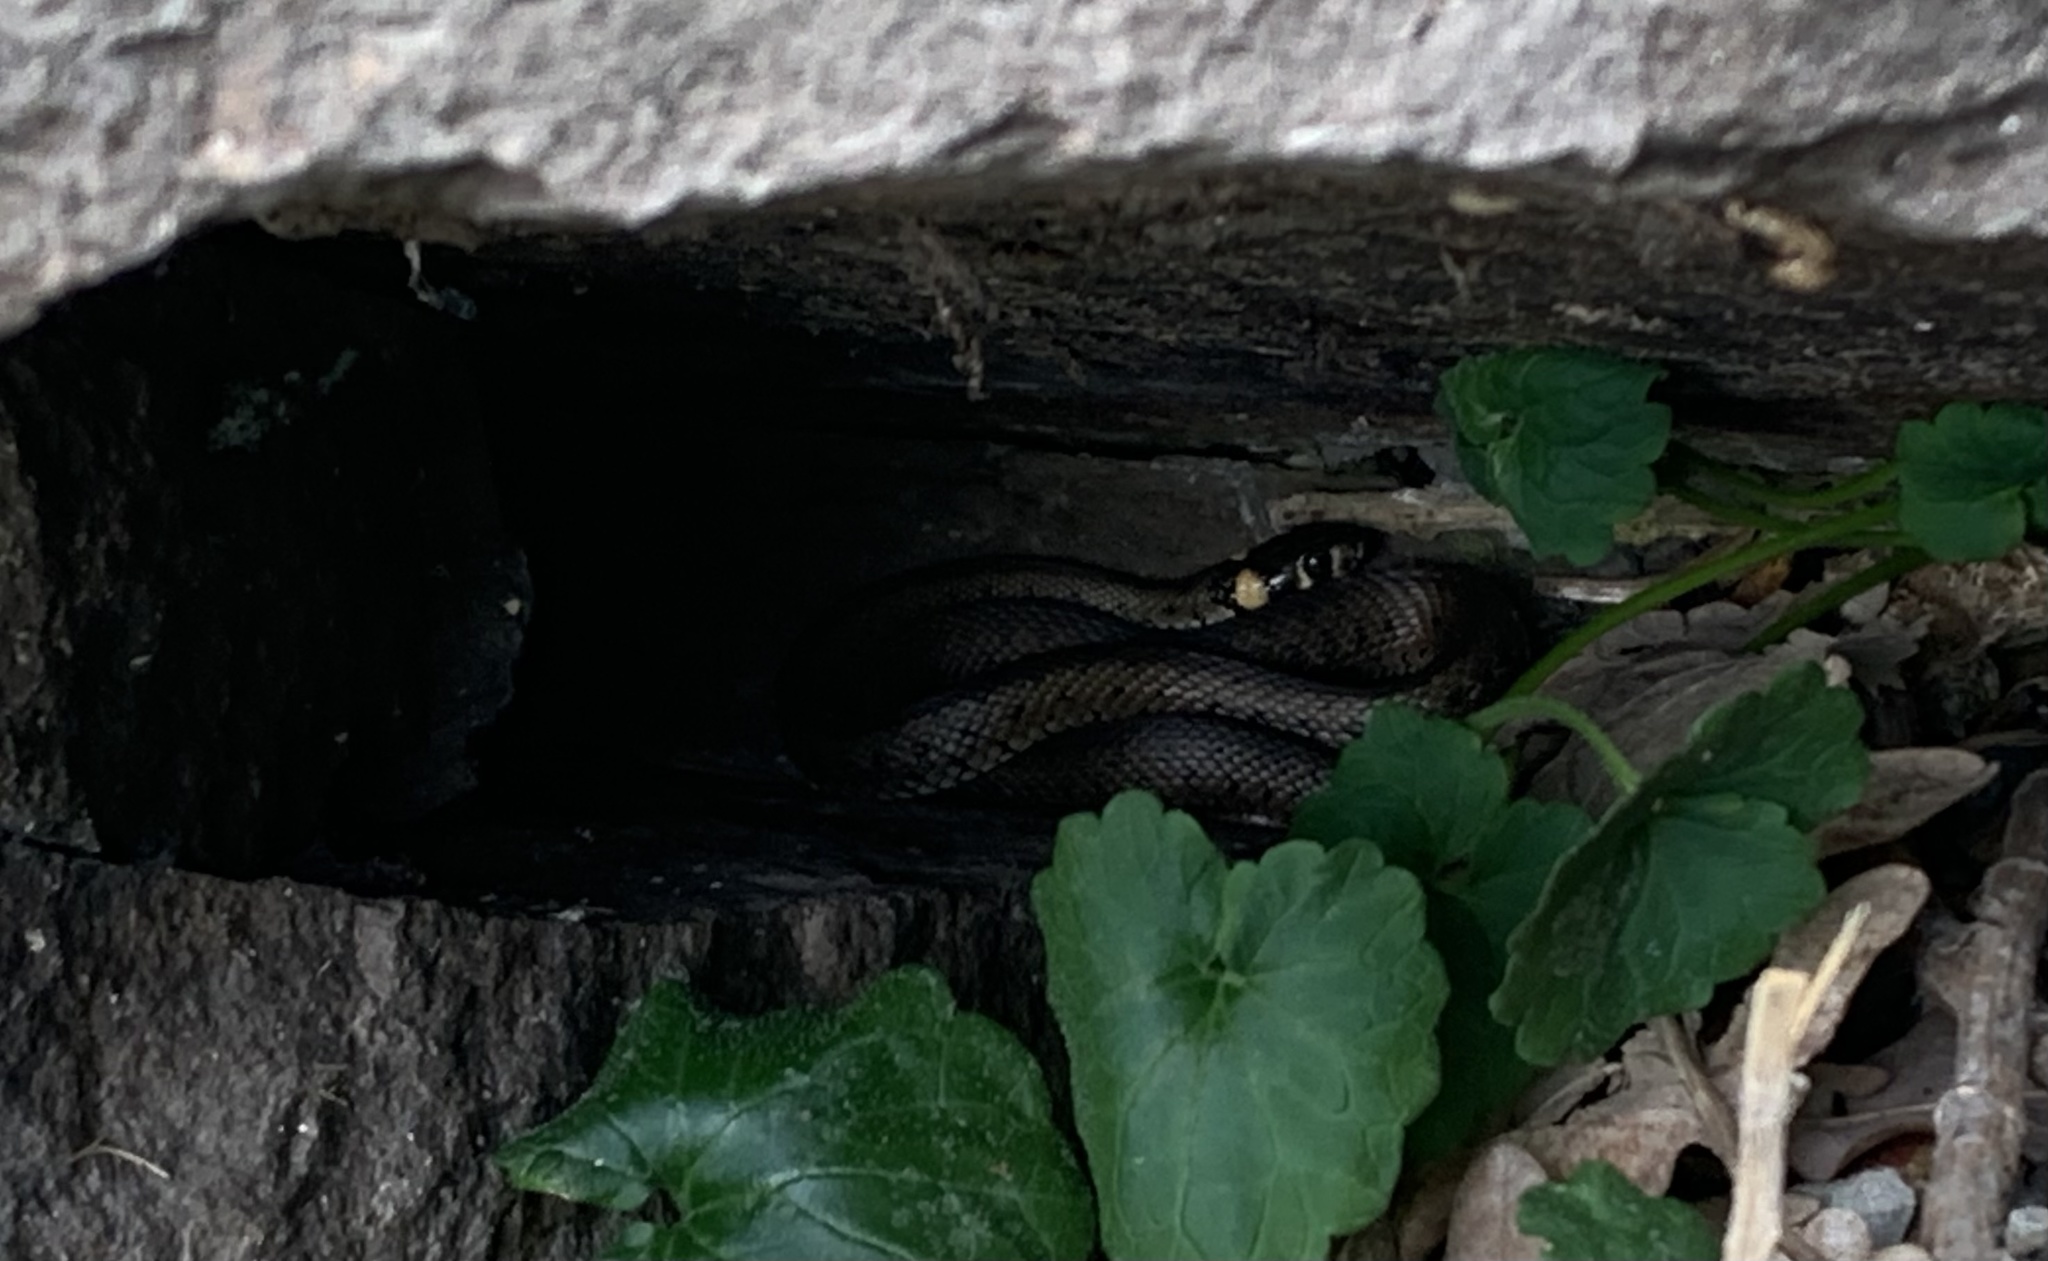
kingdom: Animalia
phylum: Chordata
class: Squamata
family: Colubridae
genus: Natrix
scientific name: Natrix natrix
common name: Grass snake
